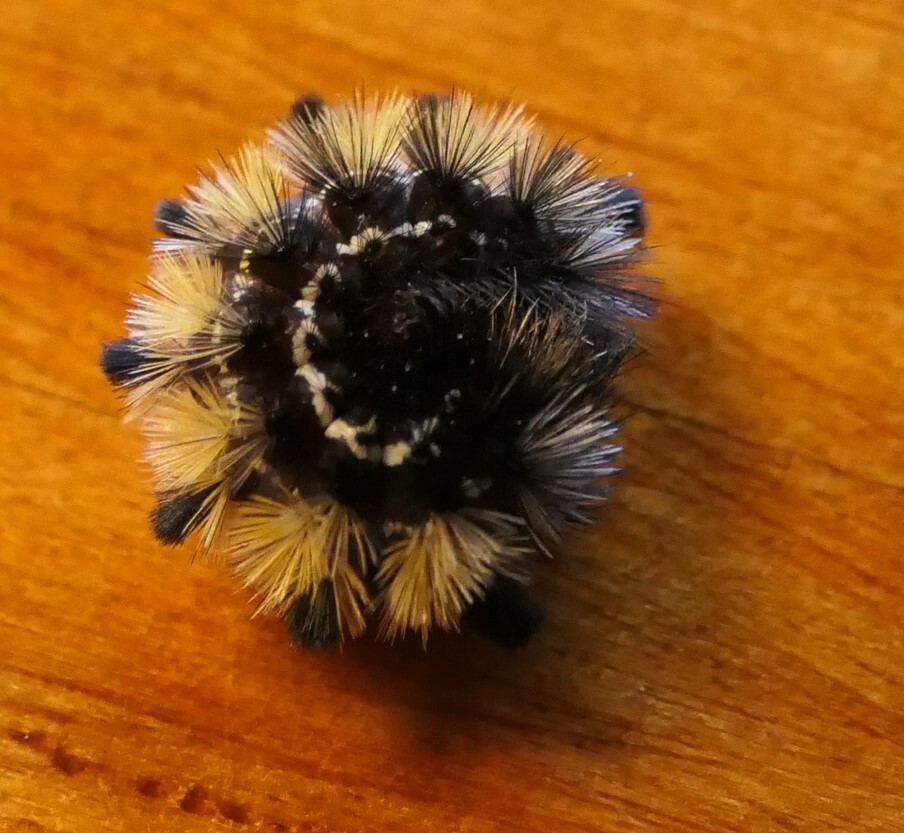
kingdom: Animalia
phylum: Arthropoda
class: Insecta
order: Lepidoptera
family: Erebidae
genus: Ctenucha
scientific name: Ctenucha virginica
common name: Virginia ctenucha moth
